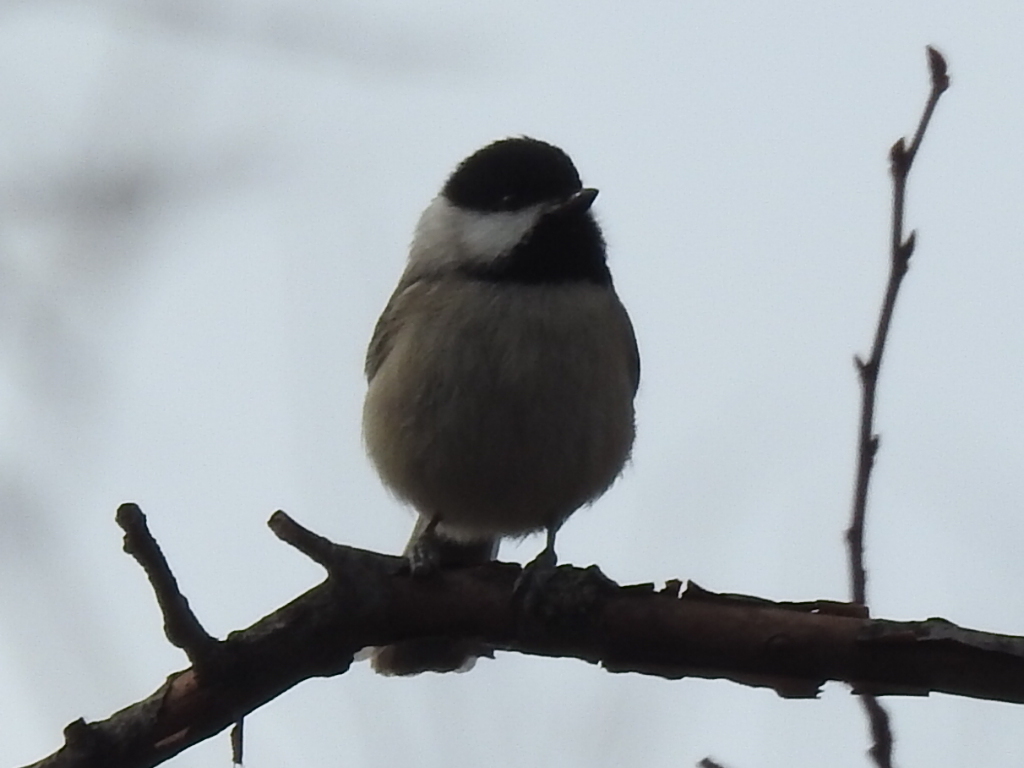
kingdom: Animalia
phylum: Chordata
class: Aves
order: Passeriformes
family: Paridae
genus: Poecile
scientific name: Poecile carolinensis
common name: Carolina chickadee
